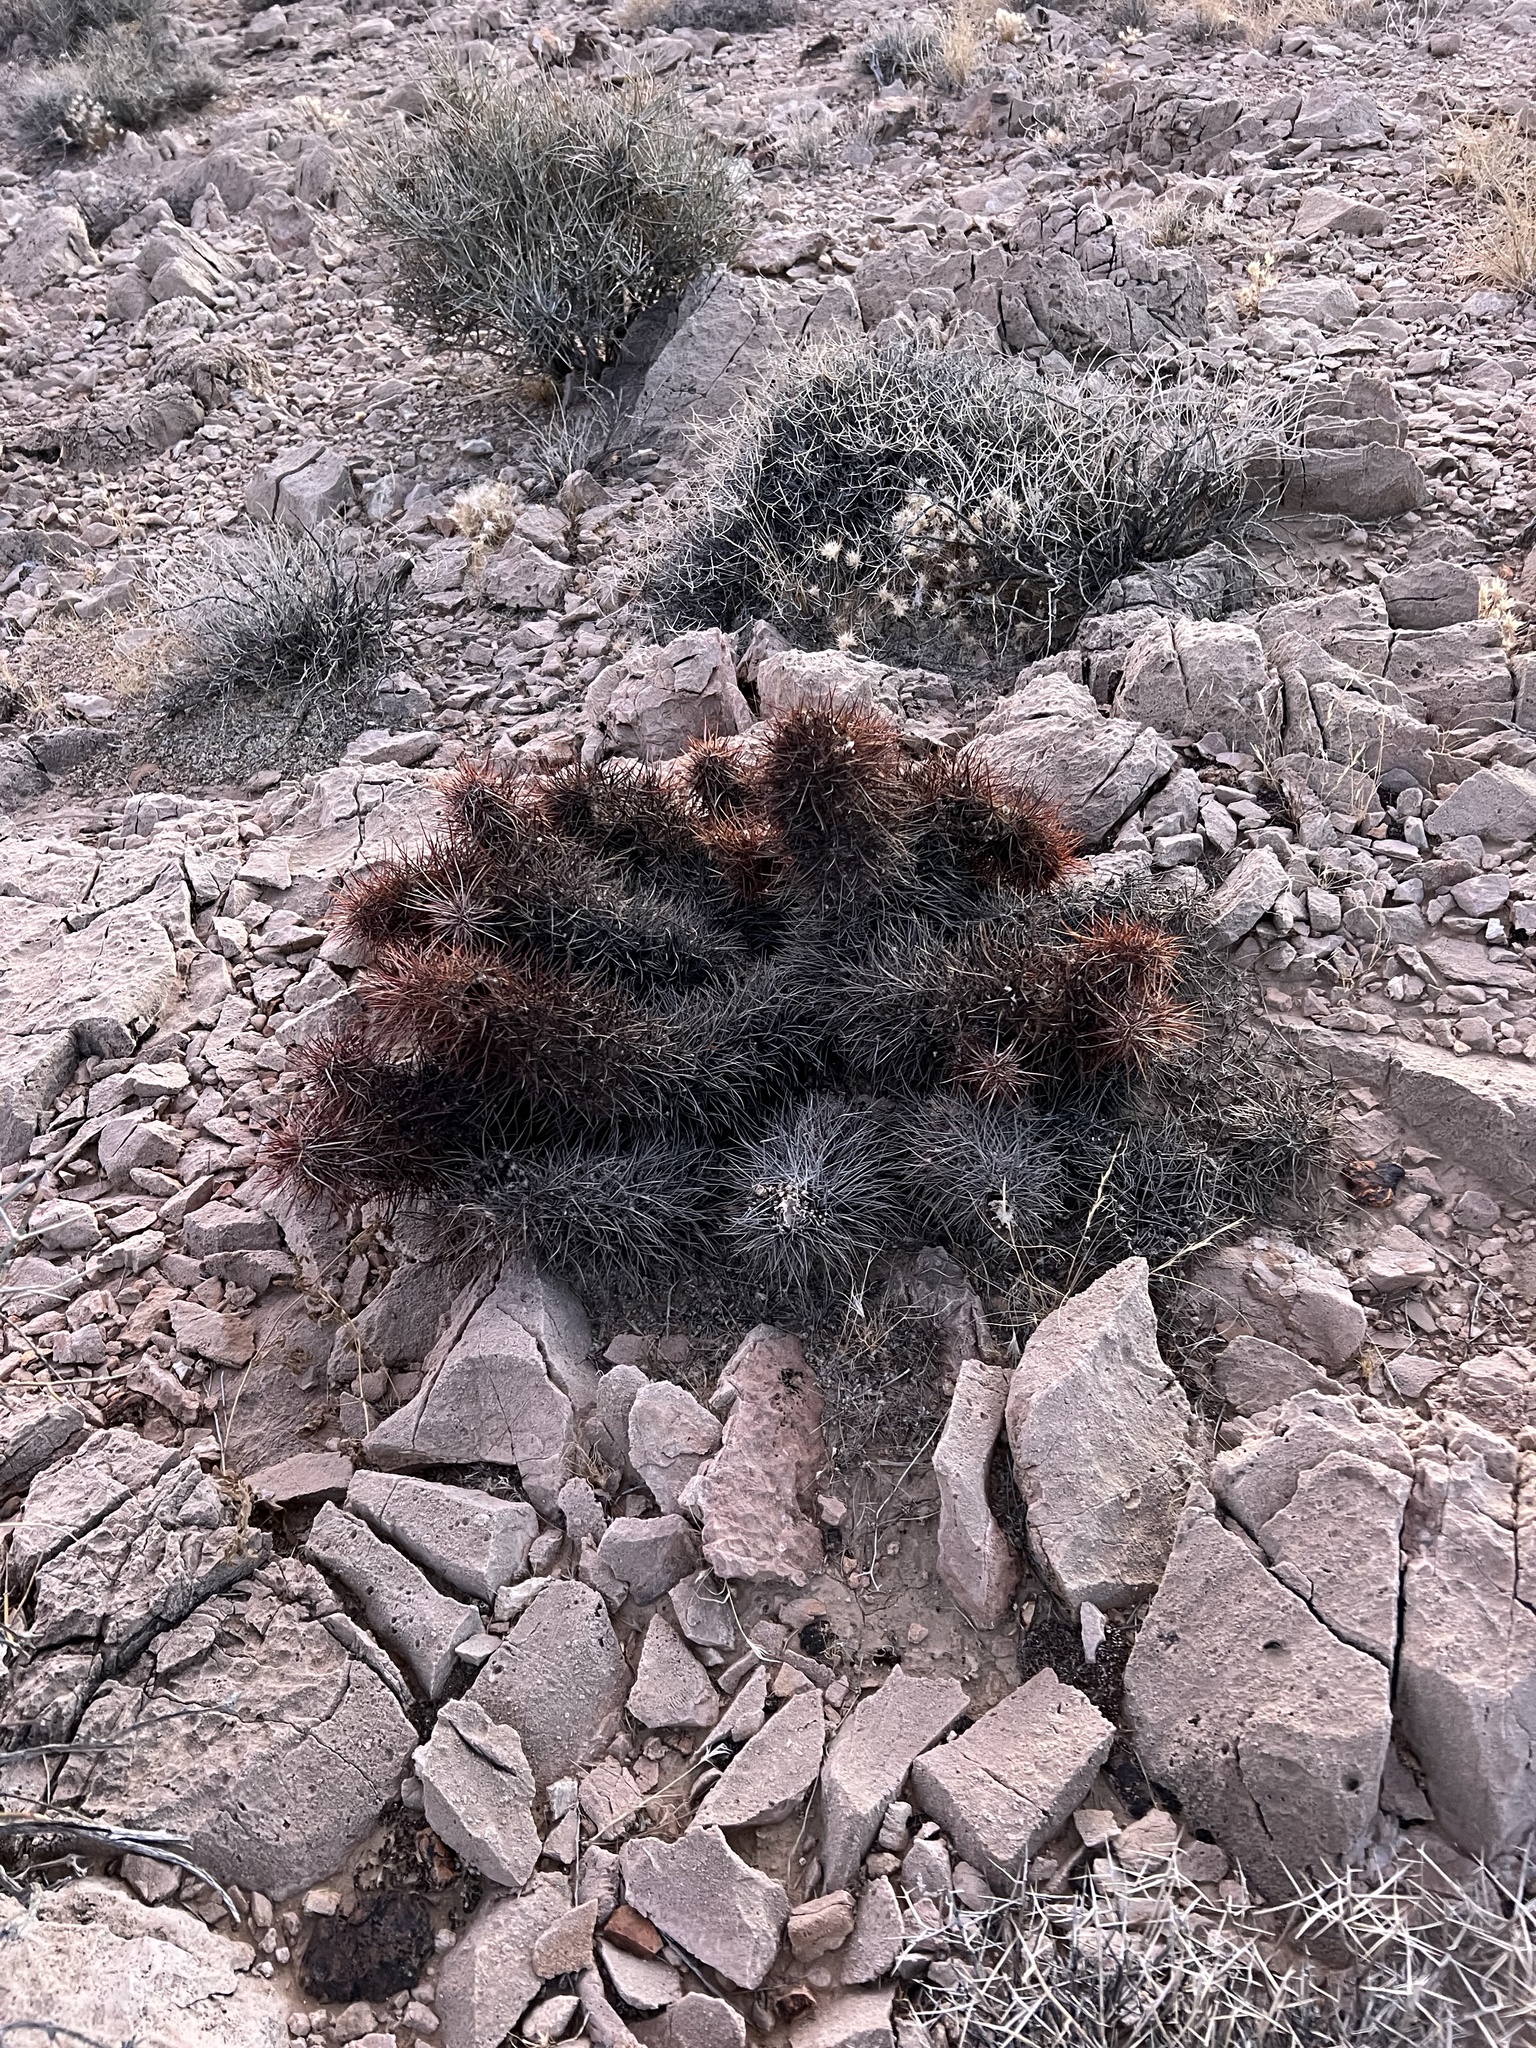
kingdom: Plantae
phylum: Tracheophyta
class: Magnoliopsida
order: Caryophyllales
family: Cactaceae
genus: Echinocereus
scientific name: Echinocereus engelmannii
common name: Engelmann's hedgehog cactus
